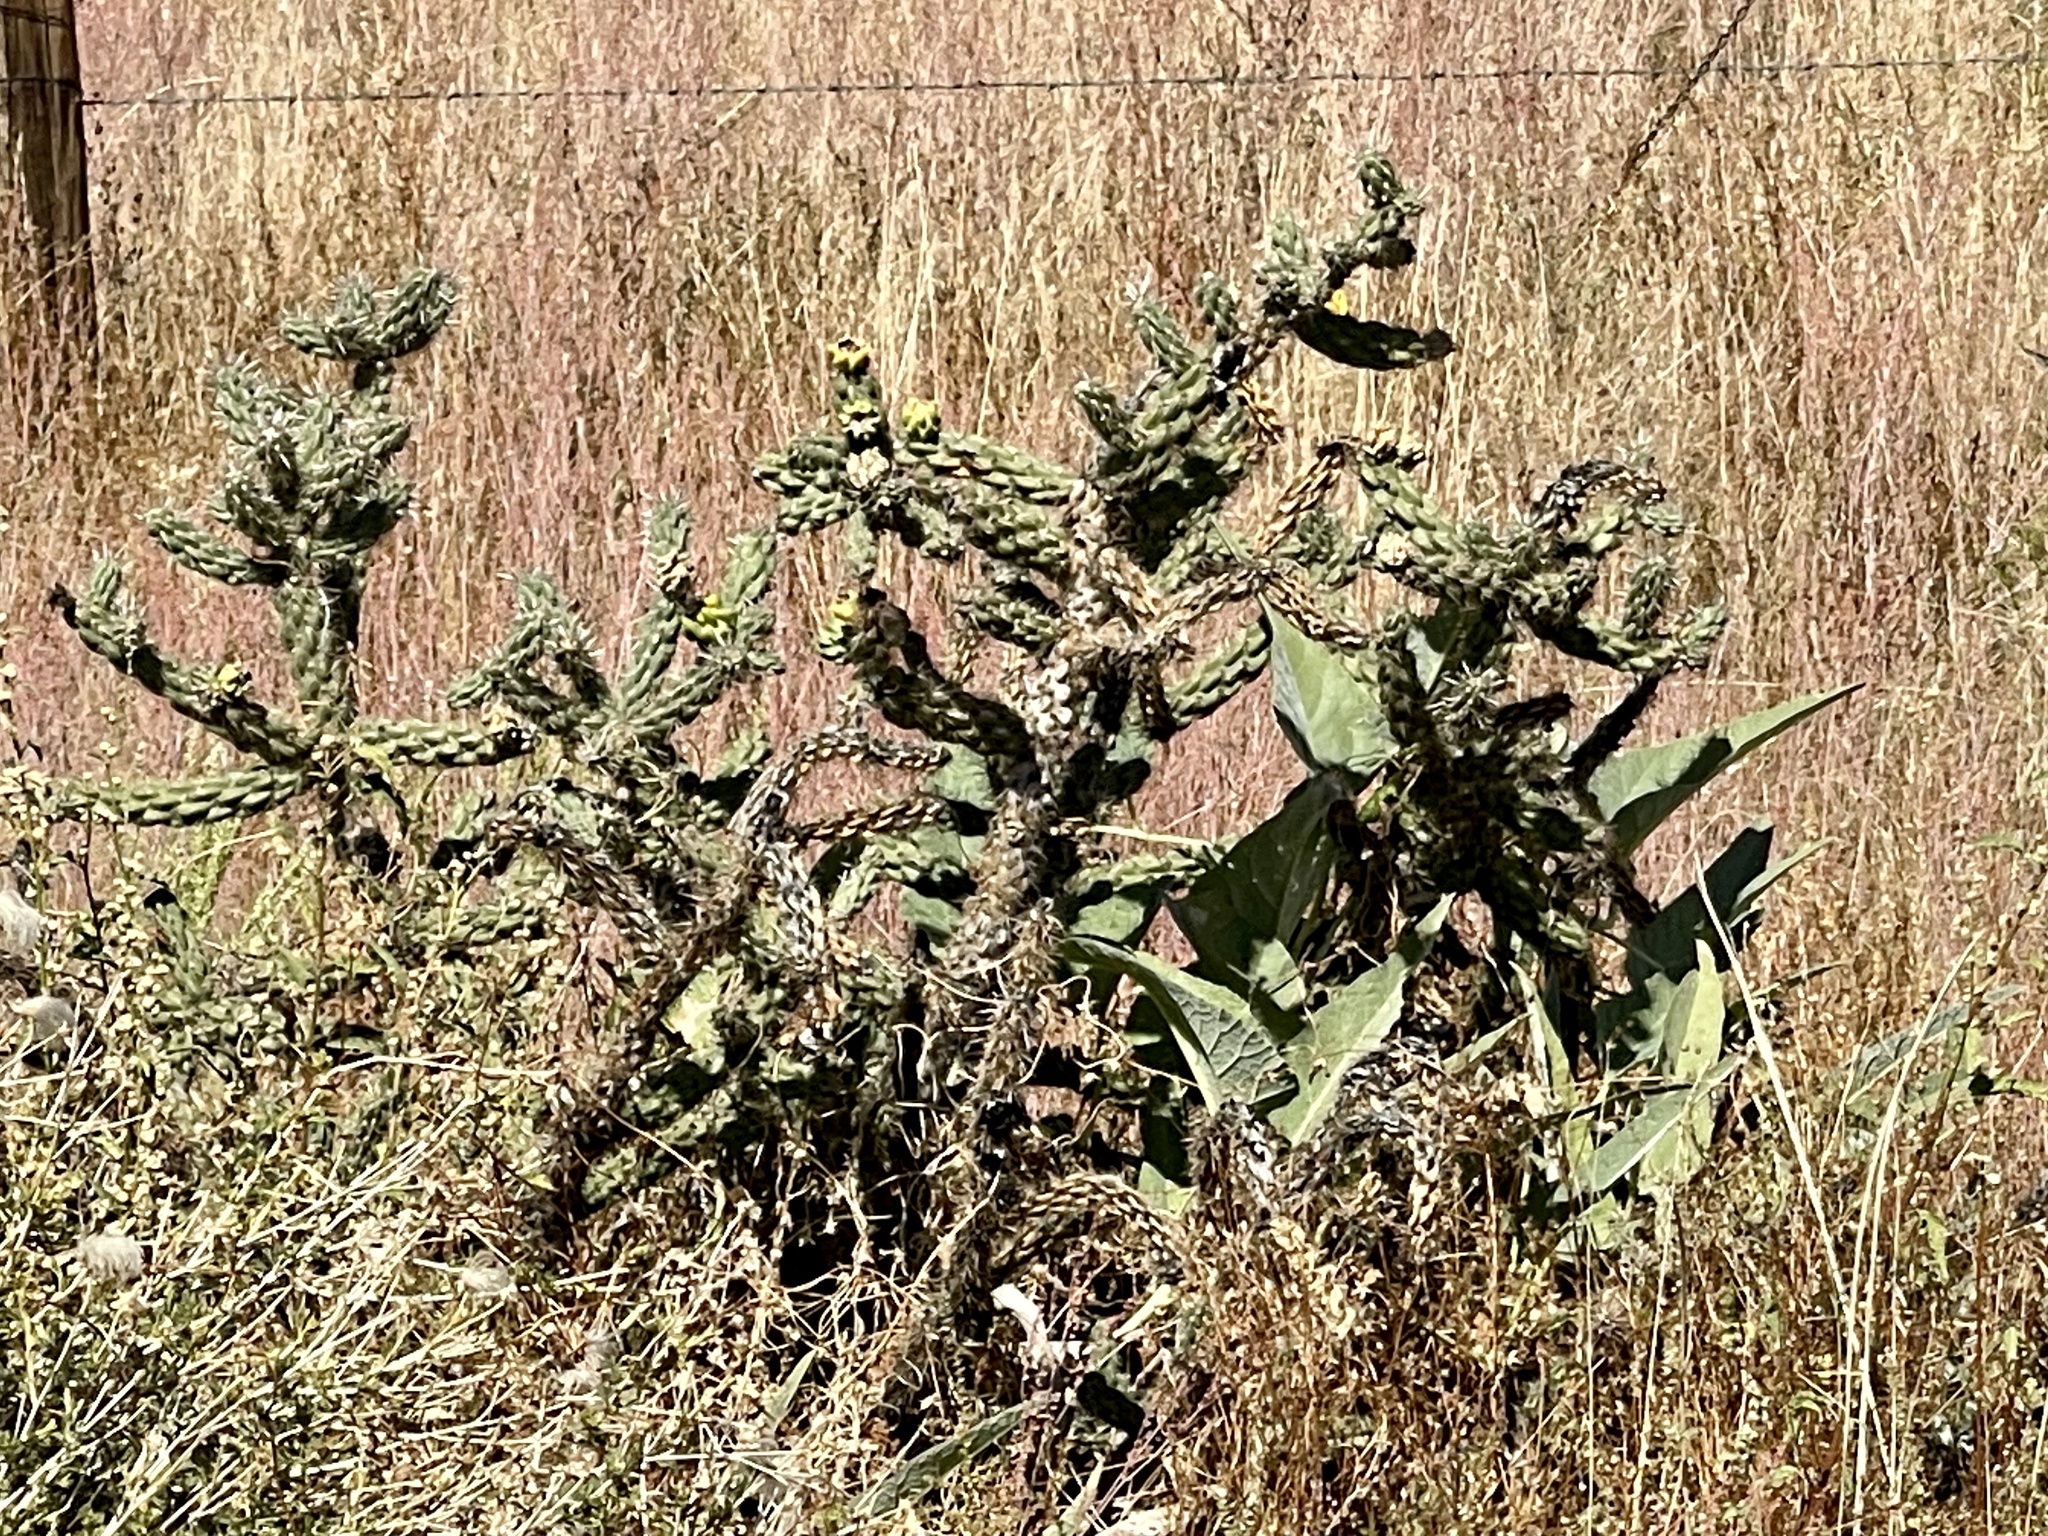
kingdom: Plantae
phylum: Tracheophyta
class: Magnoliopsida
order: Caryophyllales
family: Cactaceae
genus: Cylindropuntia
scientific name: Cylindropuntia imbricata
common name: Candelabrum cactus
